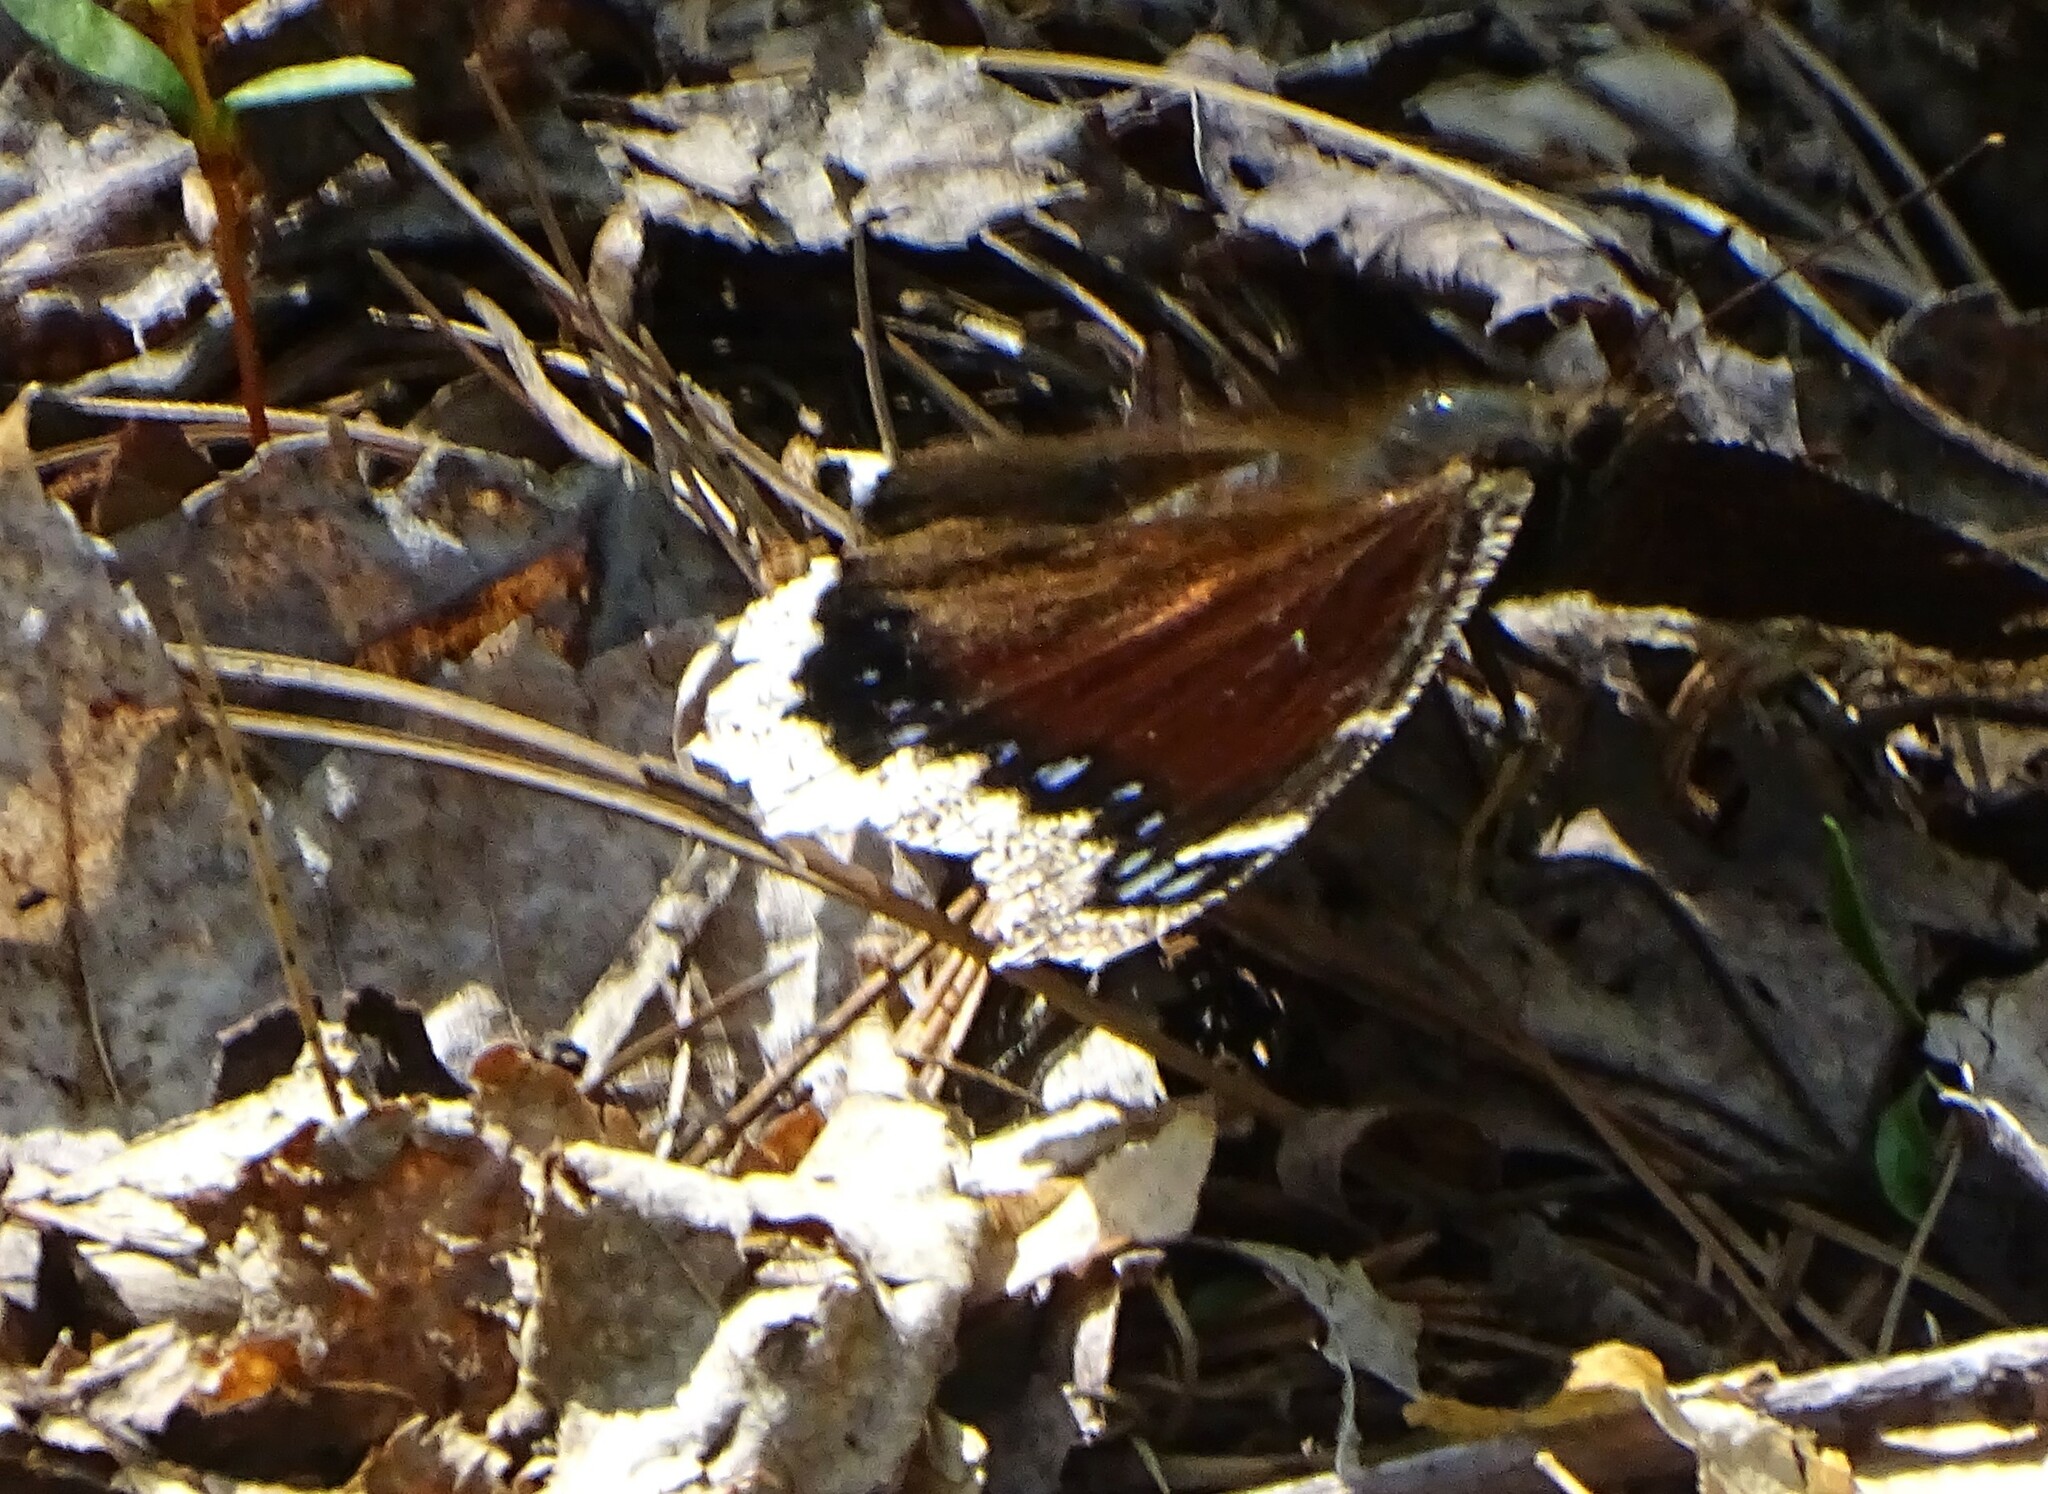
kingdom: Animalia
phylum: Arthropoda
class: Insecta
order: Lepidoptera
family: Nymphalidae
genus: Nymphalis
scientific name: Nymphalis antiopa
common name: Camberwell beauty
